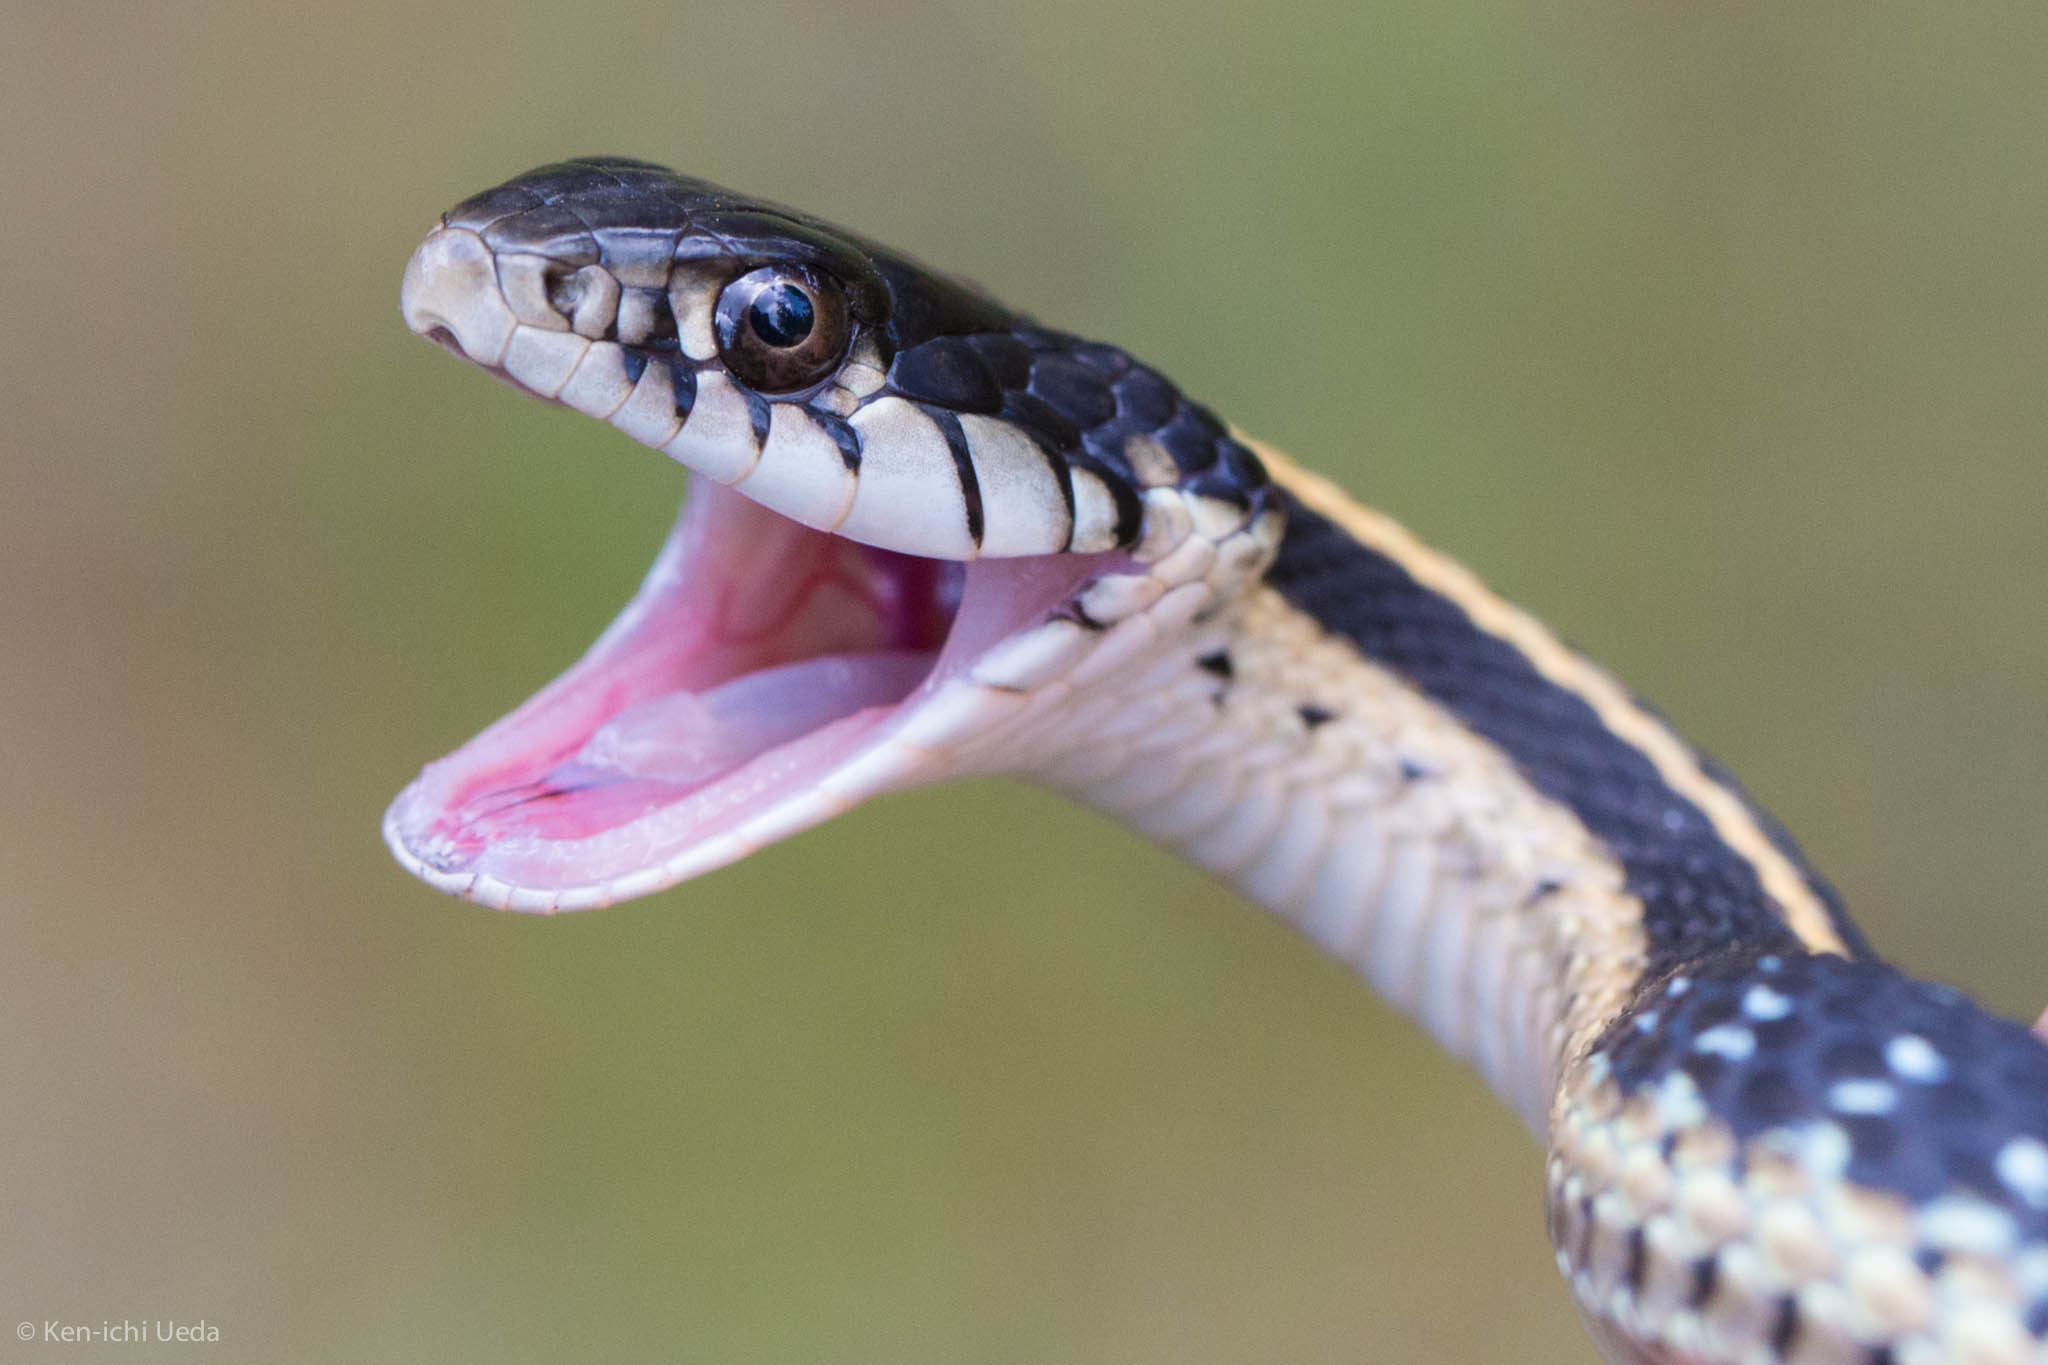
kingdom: Animalia
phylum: Chordata
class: Squamata
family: Colubridae
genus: Thamnophis
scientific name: Thamnophis elegans
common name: Western terrestrial garter snake
